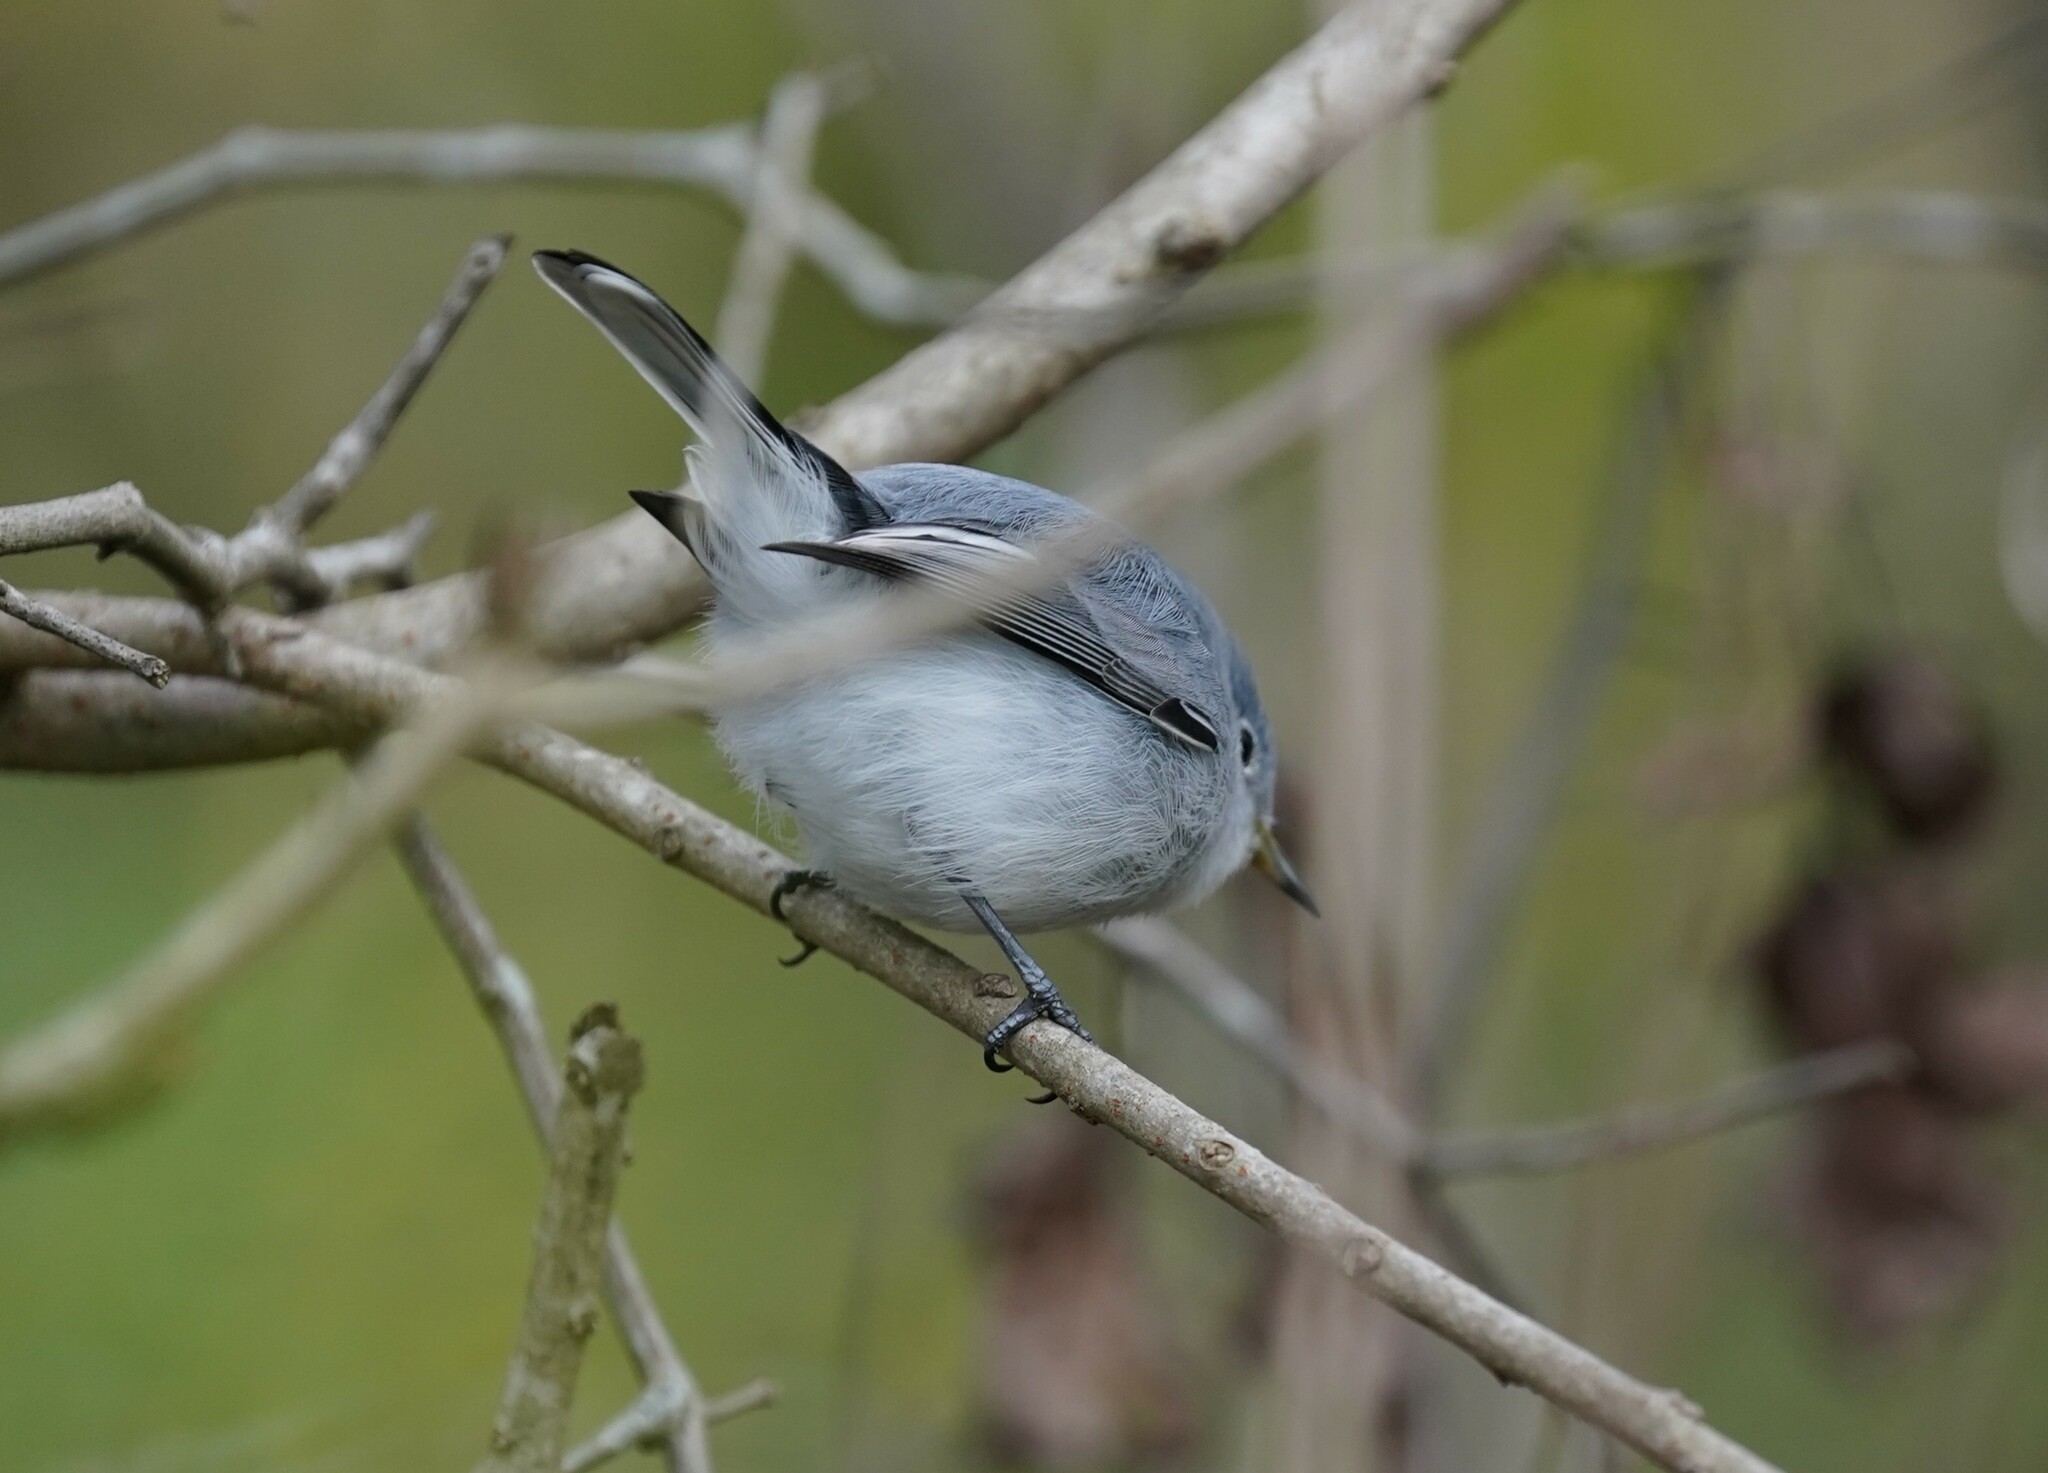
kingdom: Animalia
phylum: Chordata
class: Aves
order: Passeriformes
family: Polioptilidae
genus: Polioptila
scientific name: Polioptila caerulea
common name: Blue-gray gnatcatcher
